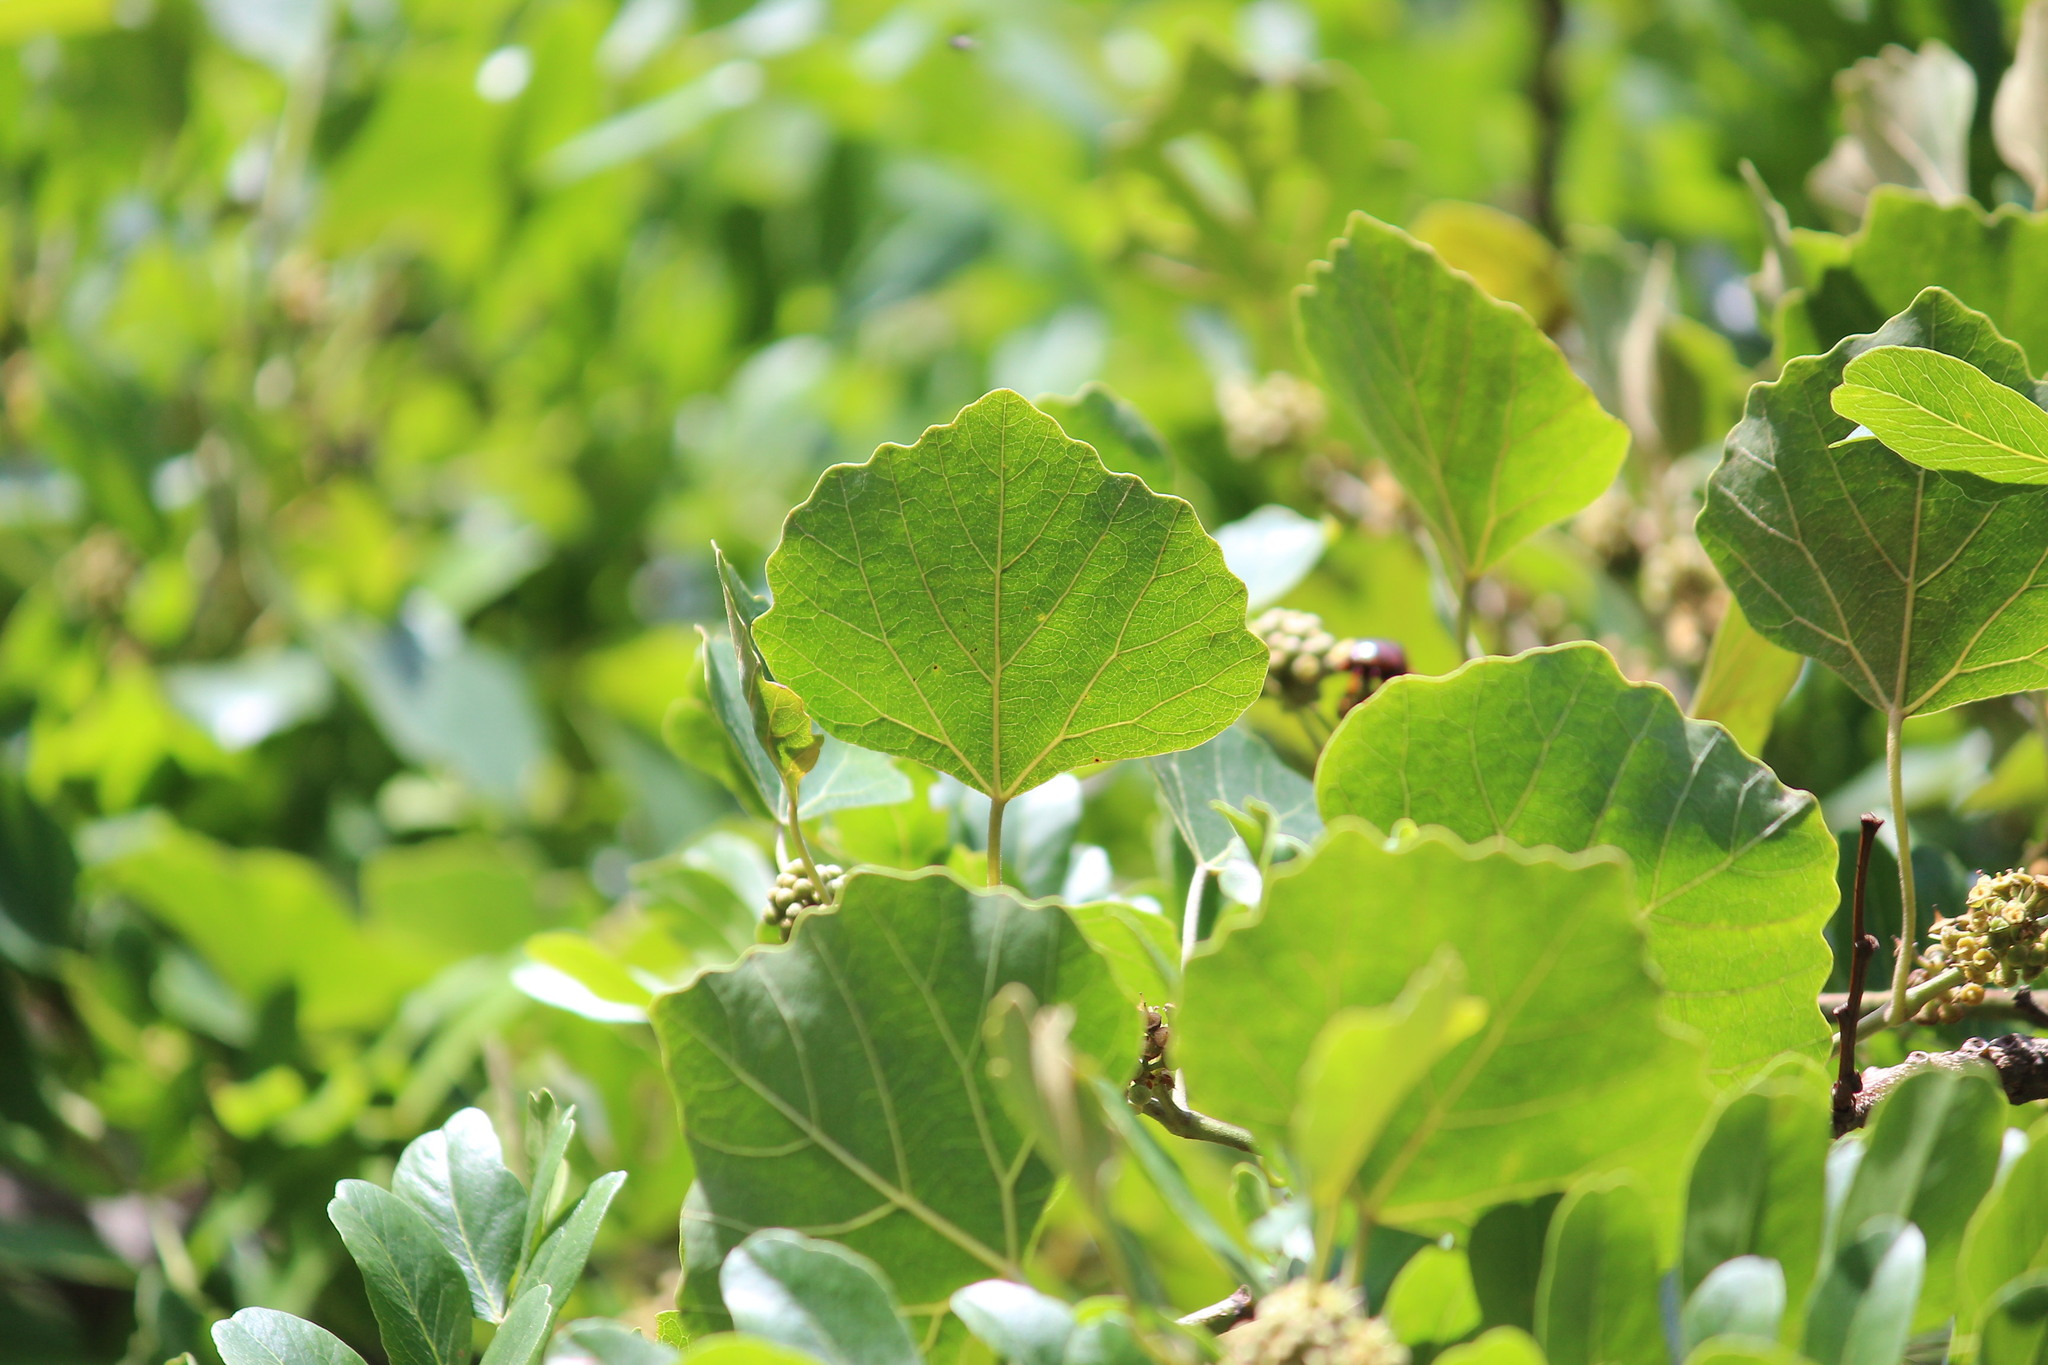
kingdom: Plantae
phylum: Tracheophyta
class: Magnoliopsida
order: Vitales
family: Vitaceae
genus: Rhoicissus
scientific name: Rhoicissus tomentosa
